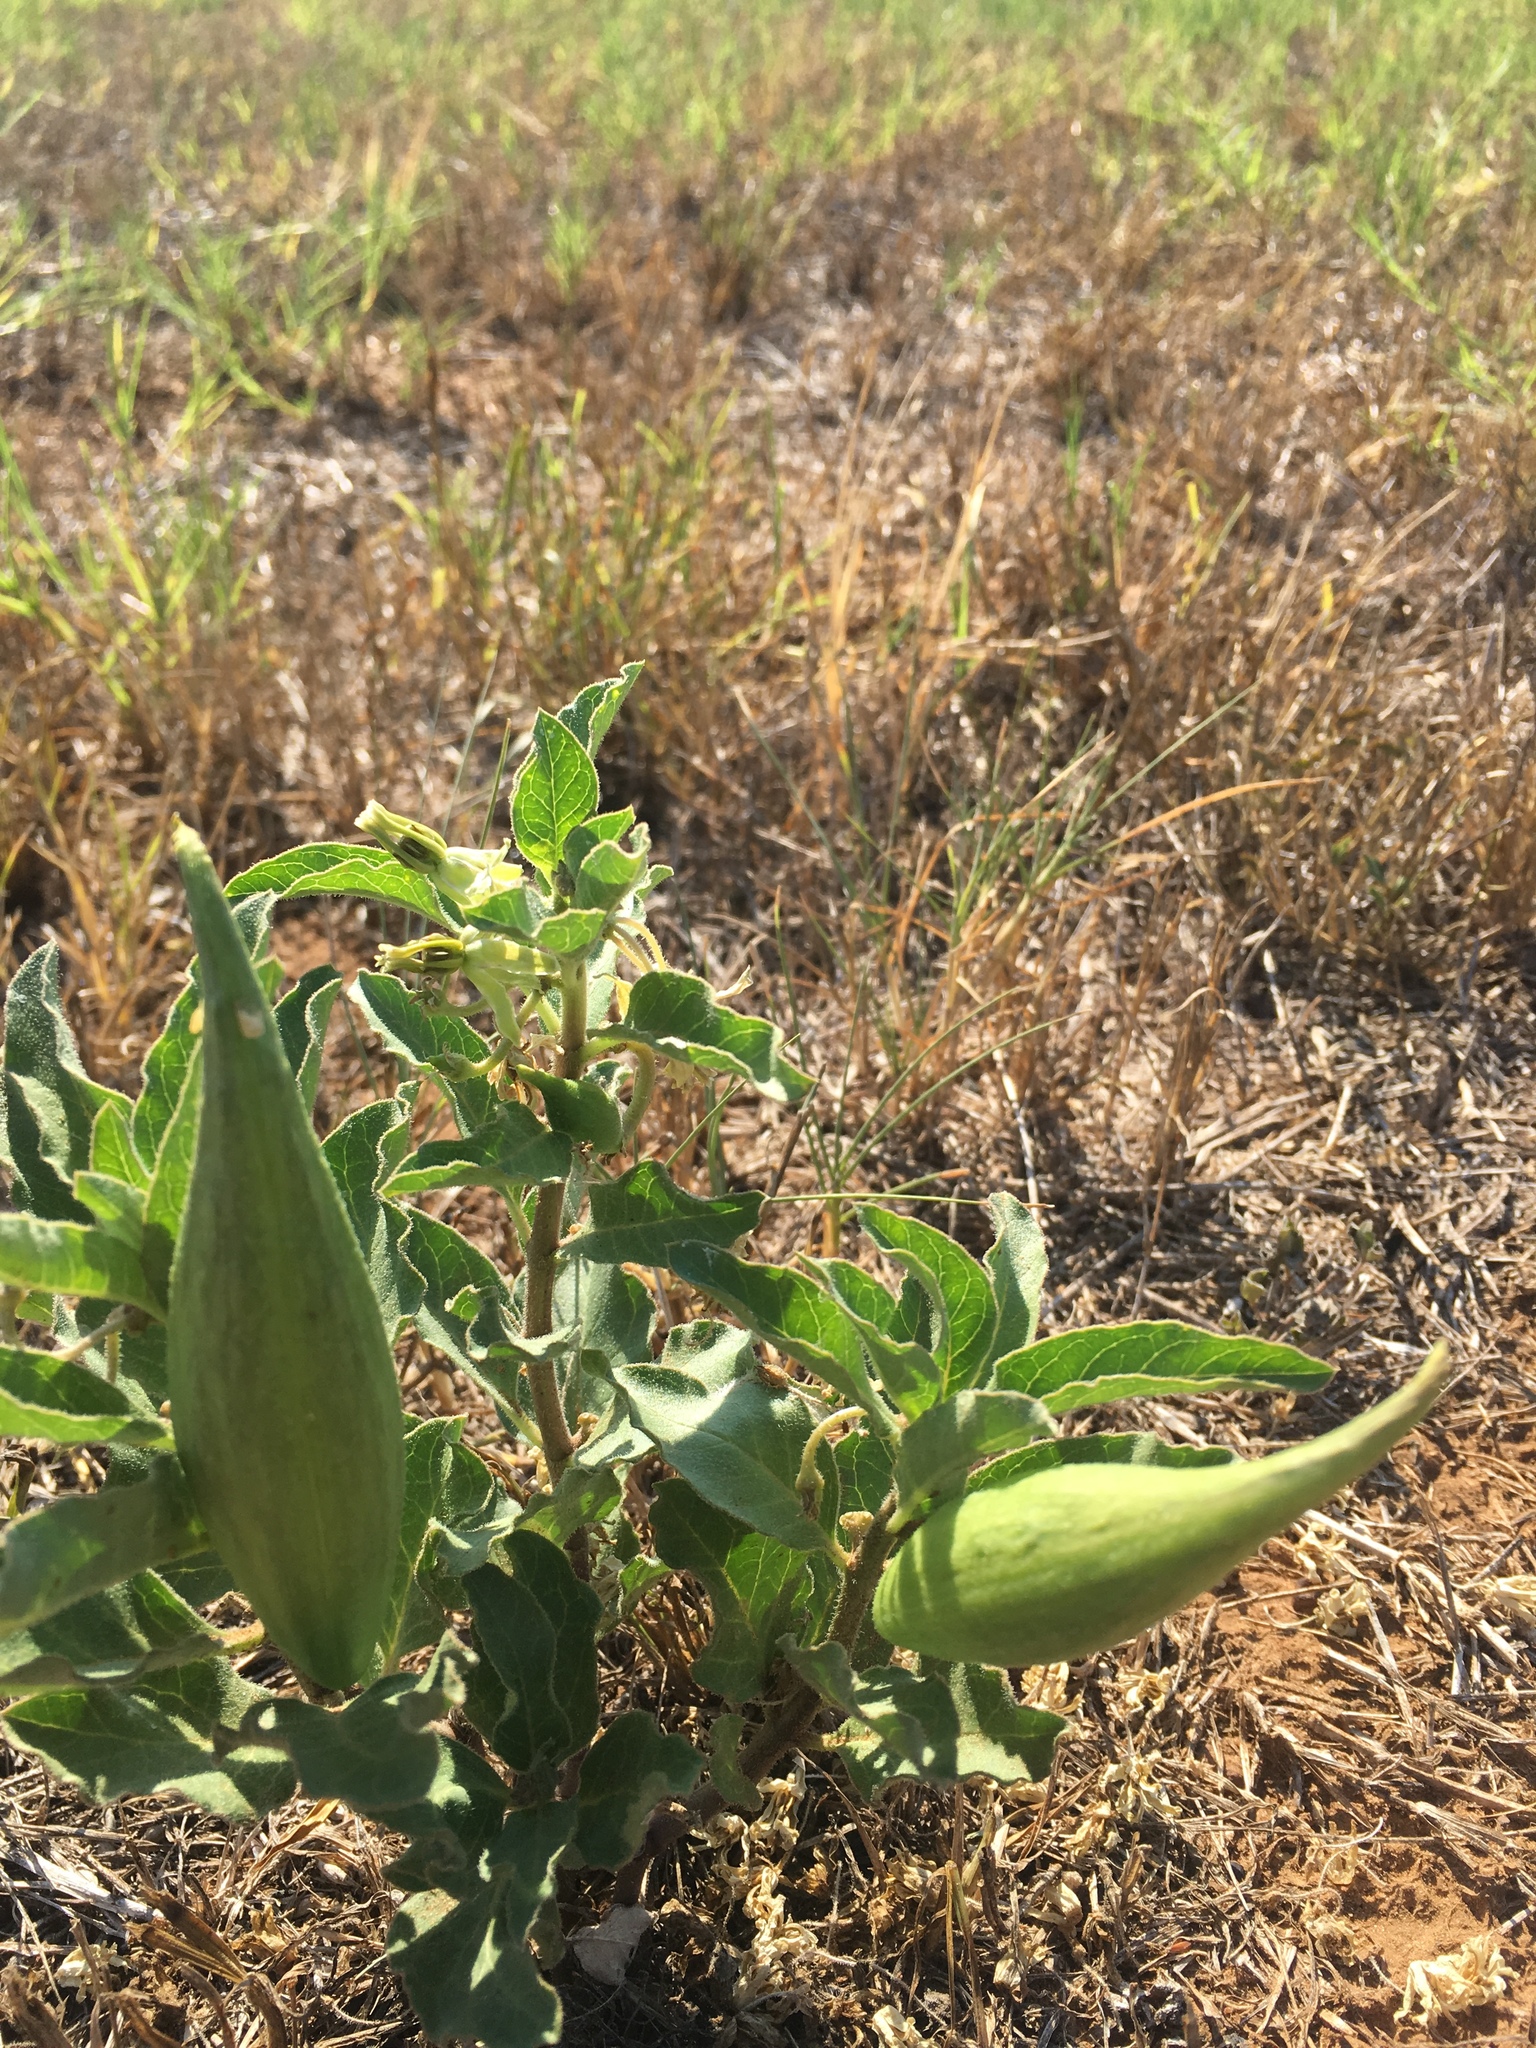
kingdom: Plantae
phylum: Tracheophyta
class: Magnoliopsida
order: Gentianales
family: Apocynaceae
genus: Asclepias
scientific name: Asclepias oenotheroides
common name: Zizotes milkweed
